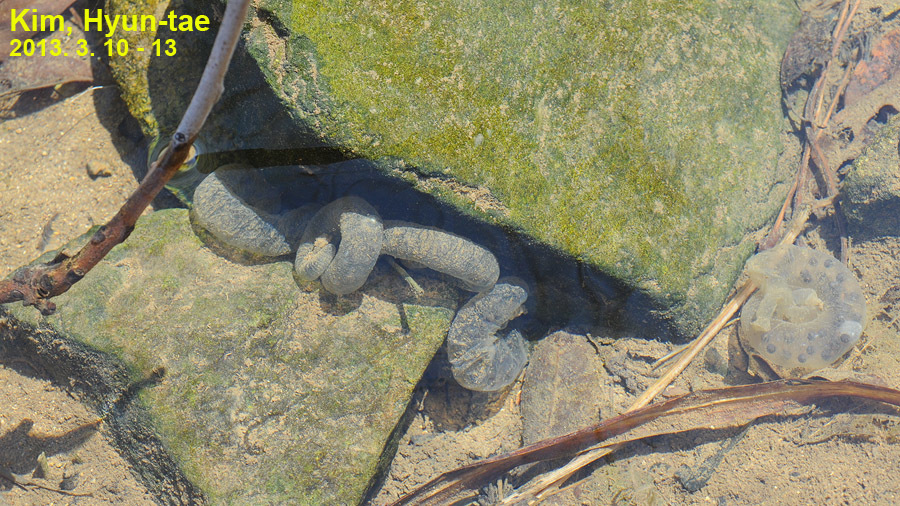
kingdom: Animalia
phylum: Chordata
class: Amphibia
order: Caudata
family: Hynobiidae
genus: Hynobius
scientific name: Hynobius leechii
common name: Gensan salamander
